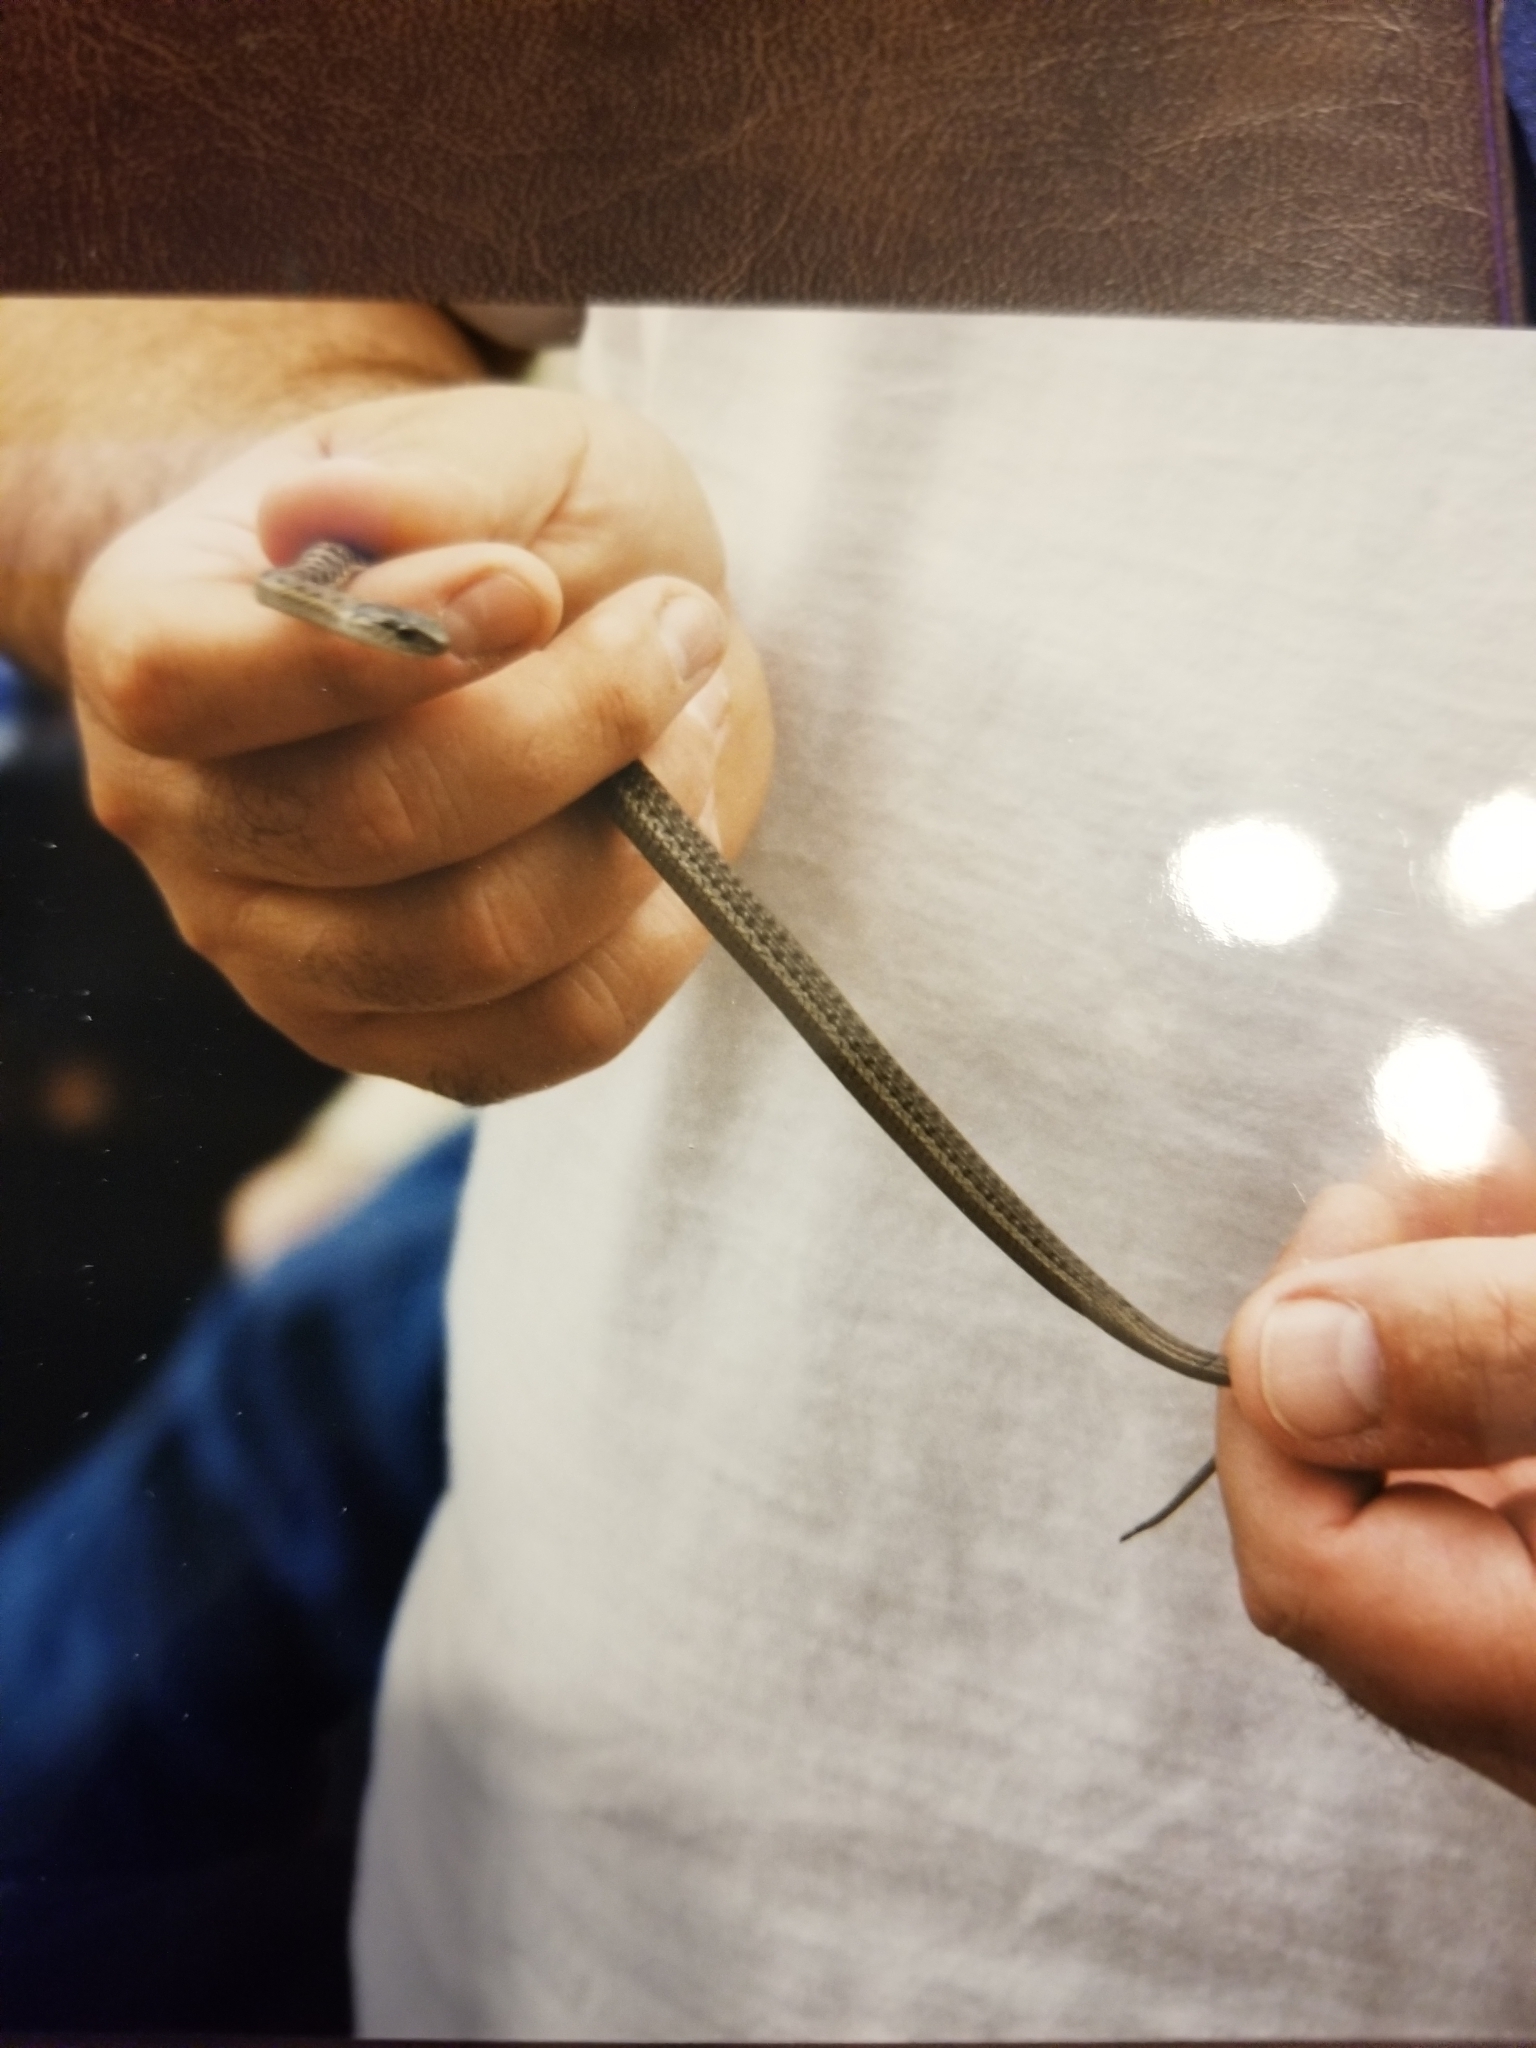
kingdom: Animalia
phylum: Chordata
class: Squamata
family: Colubridae
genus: Thamnophis
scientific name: Thamnophis elegans
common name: Western terrestrial garter snake
